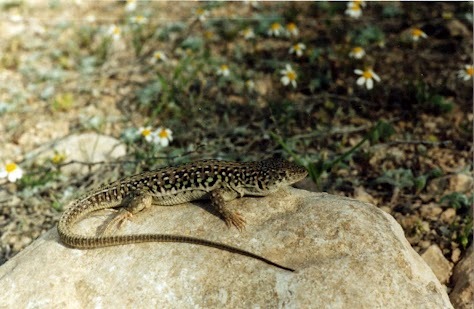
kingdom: Animalia
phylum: Chordata
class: Squamata
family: Lacertidae
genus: Eremias
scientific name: Eremias strauchi
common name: Strauch's racerunner
